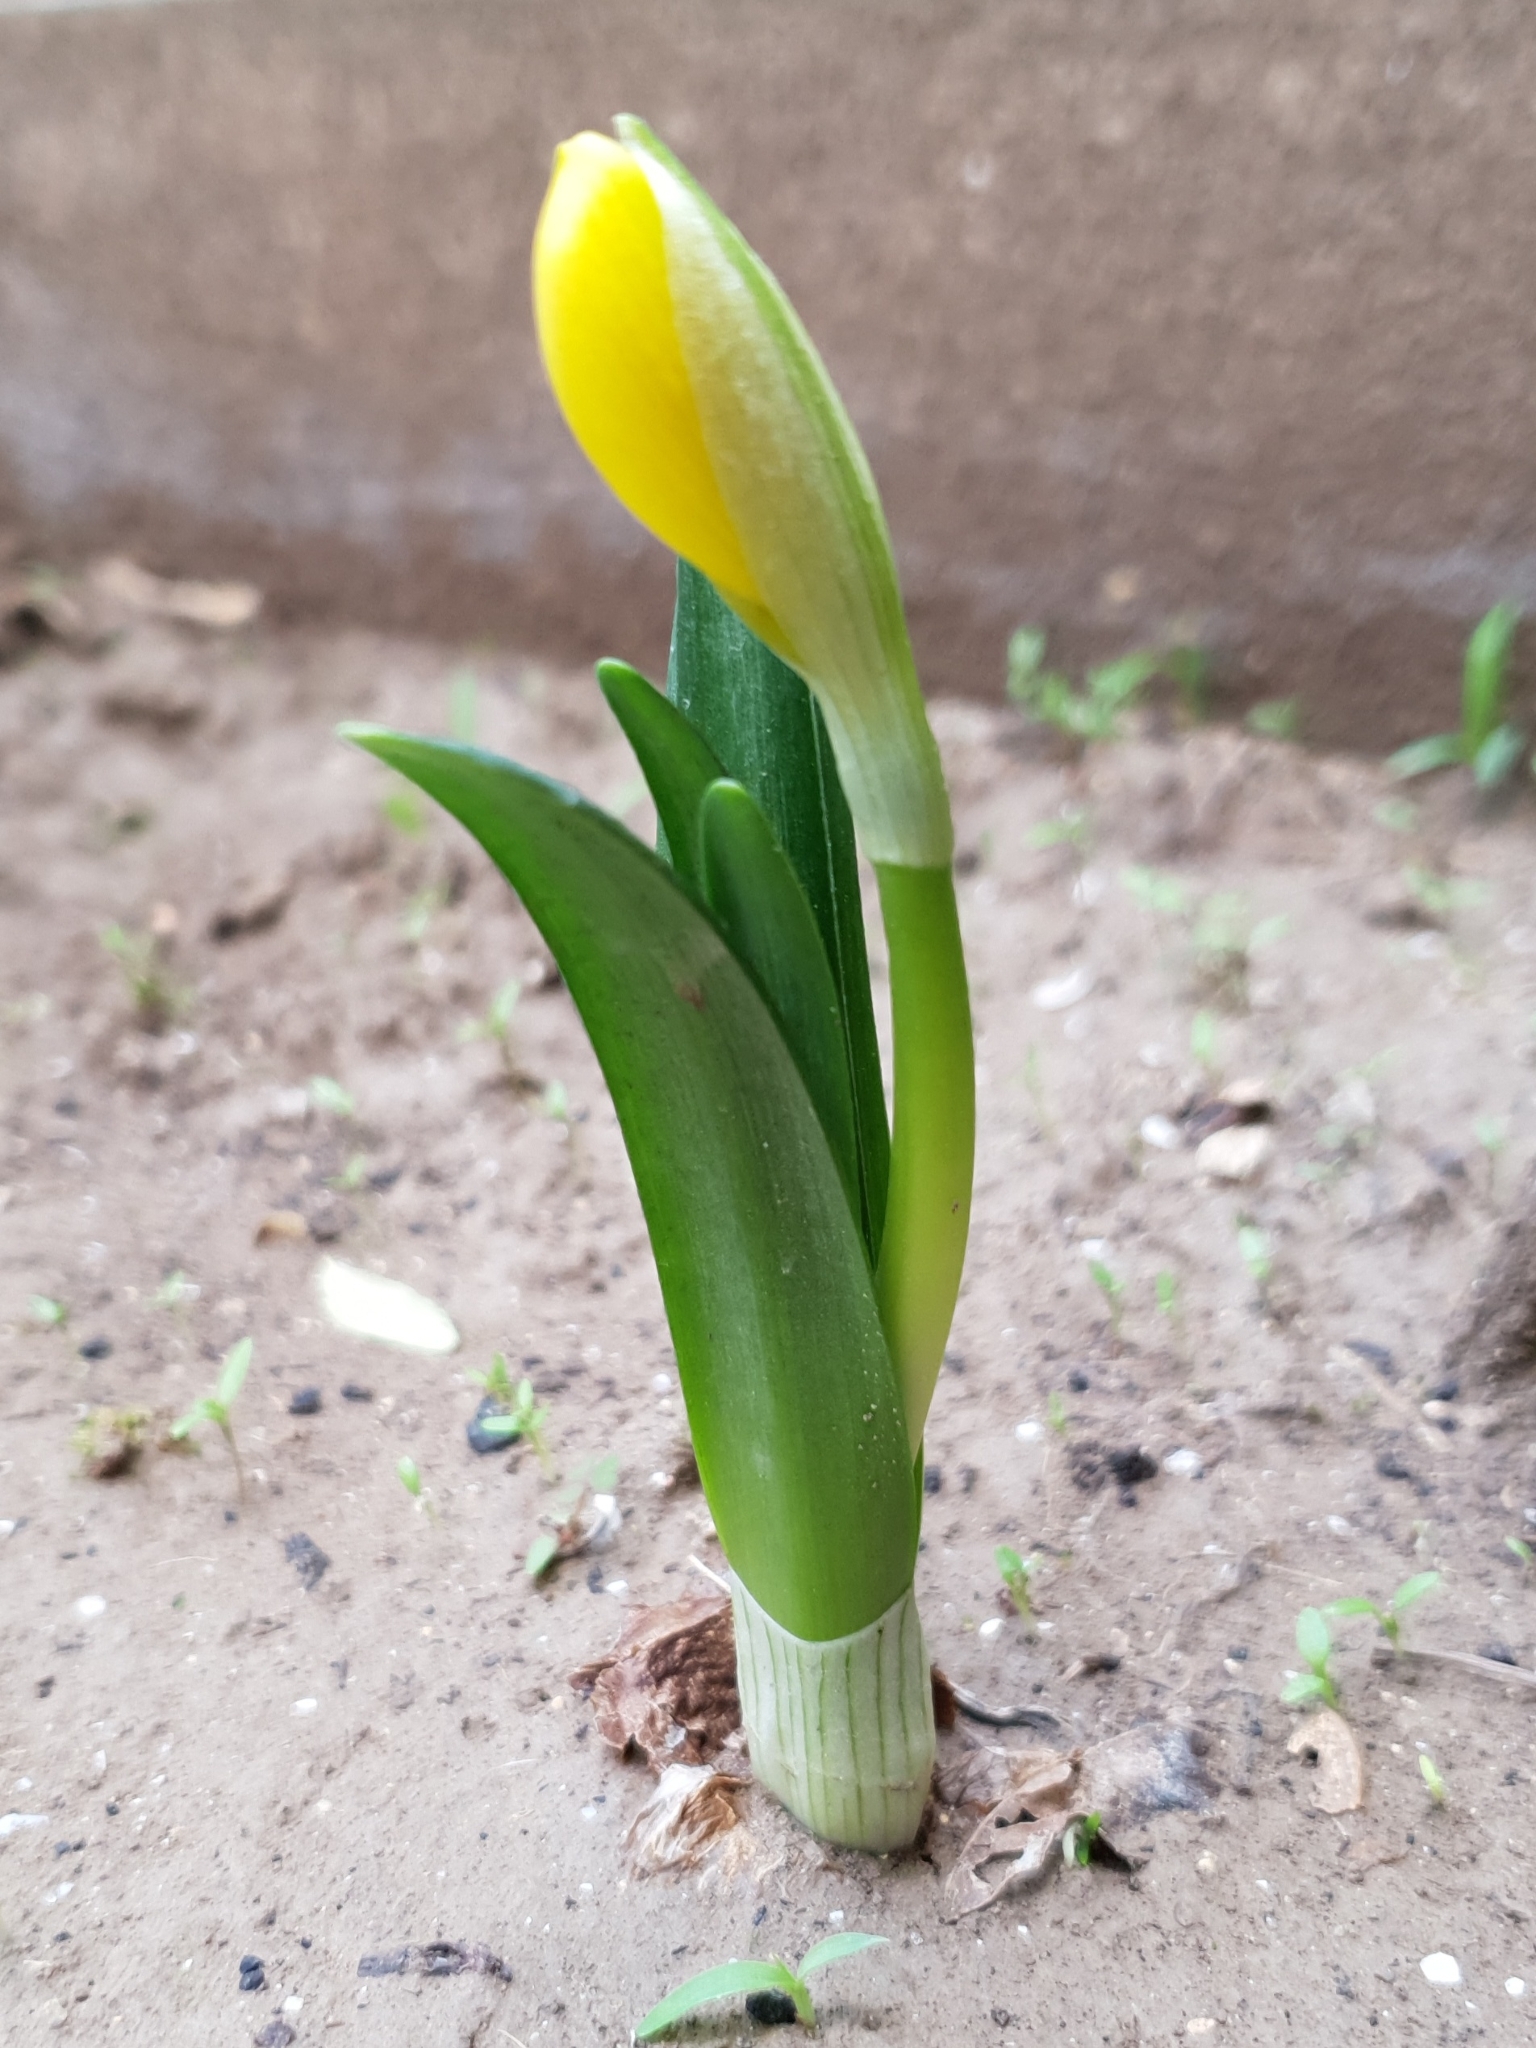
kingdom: Plantae
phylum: Tracheophyta
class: Liliopsida
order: Asparagales
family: Amaryllidaceae
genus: Sternbergia
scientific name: Sternbergia lutea
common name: Winter daffodil
